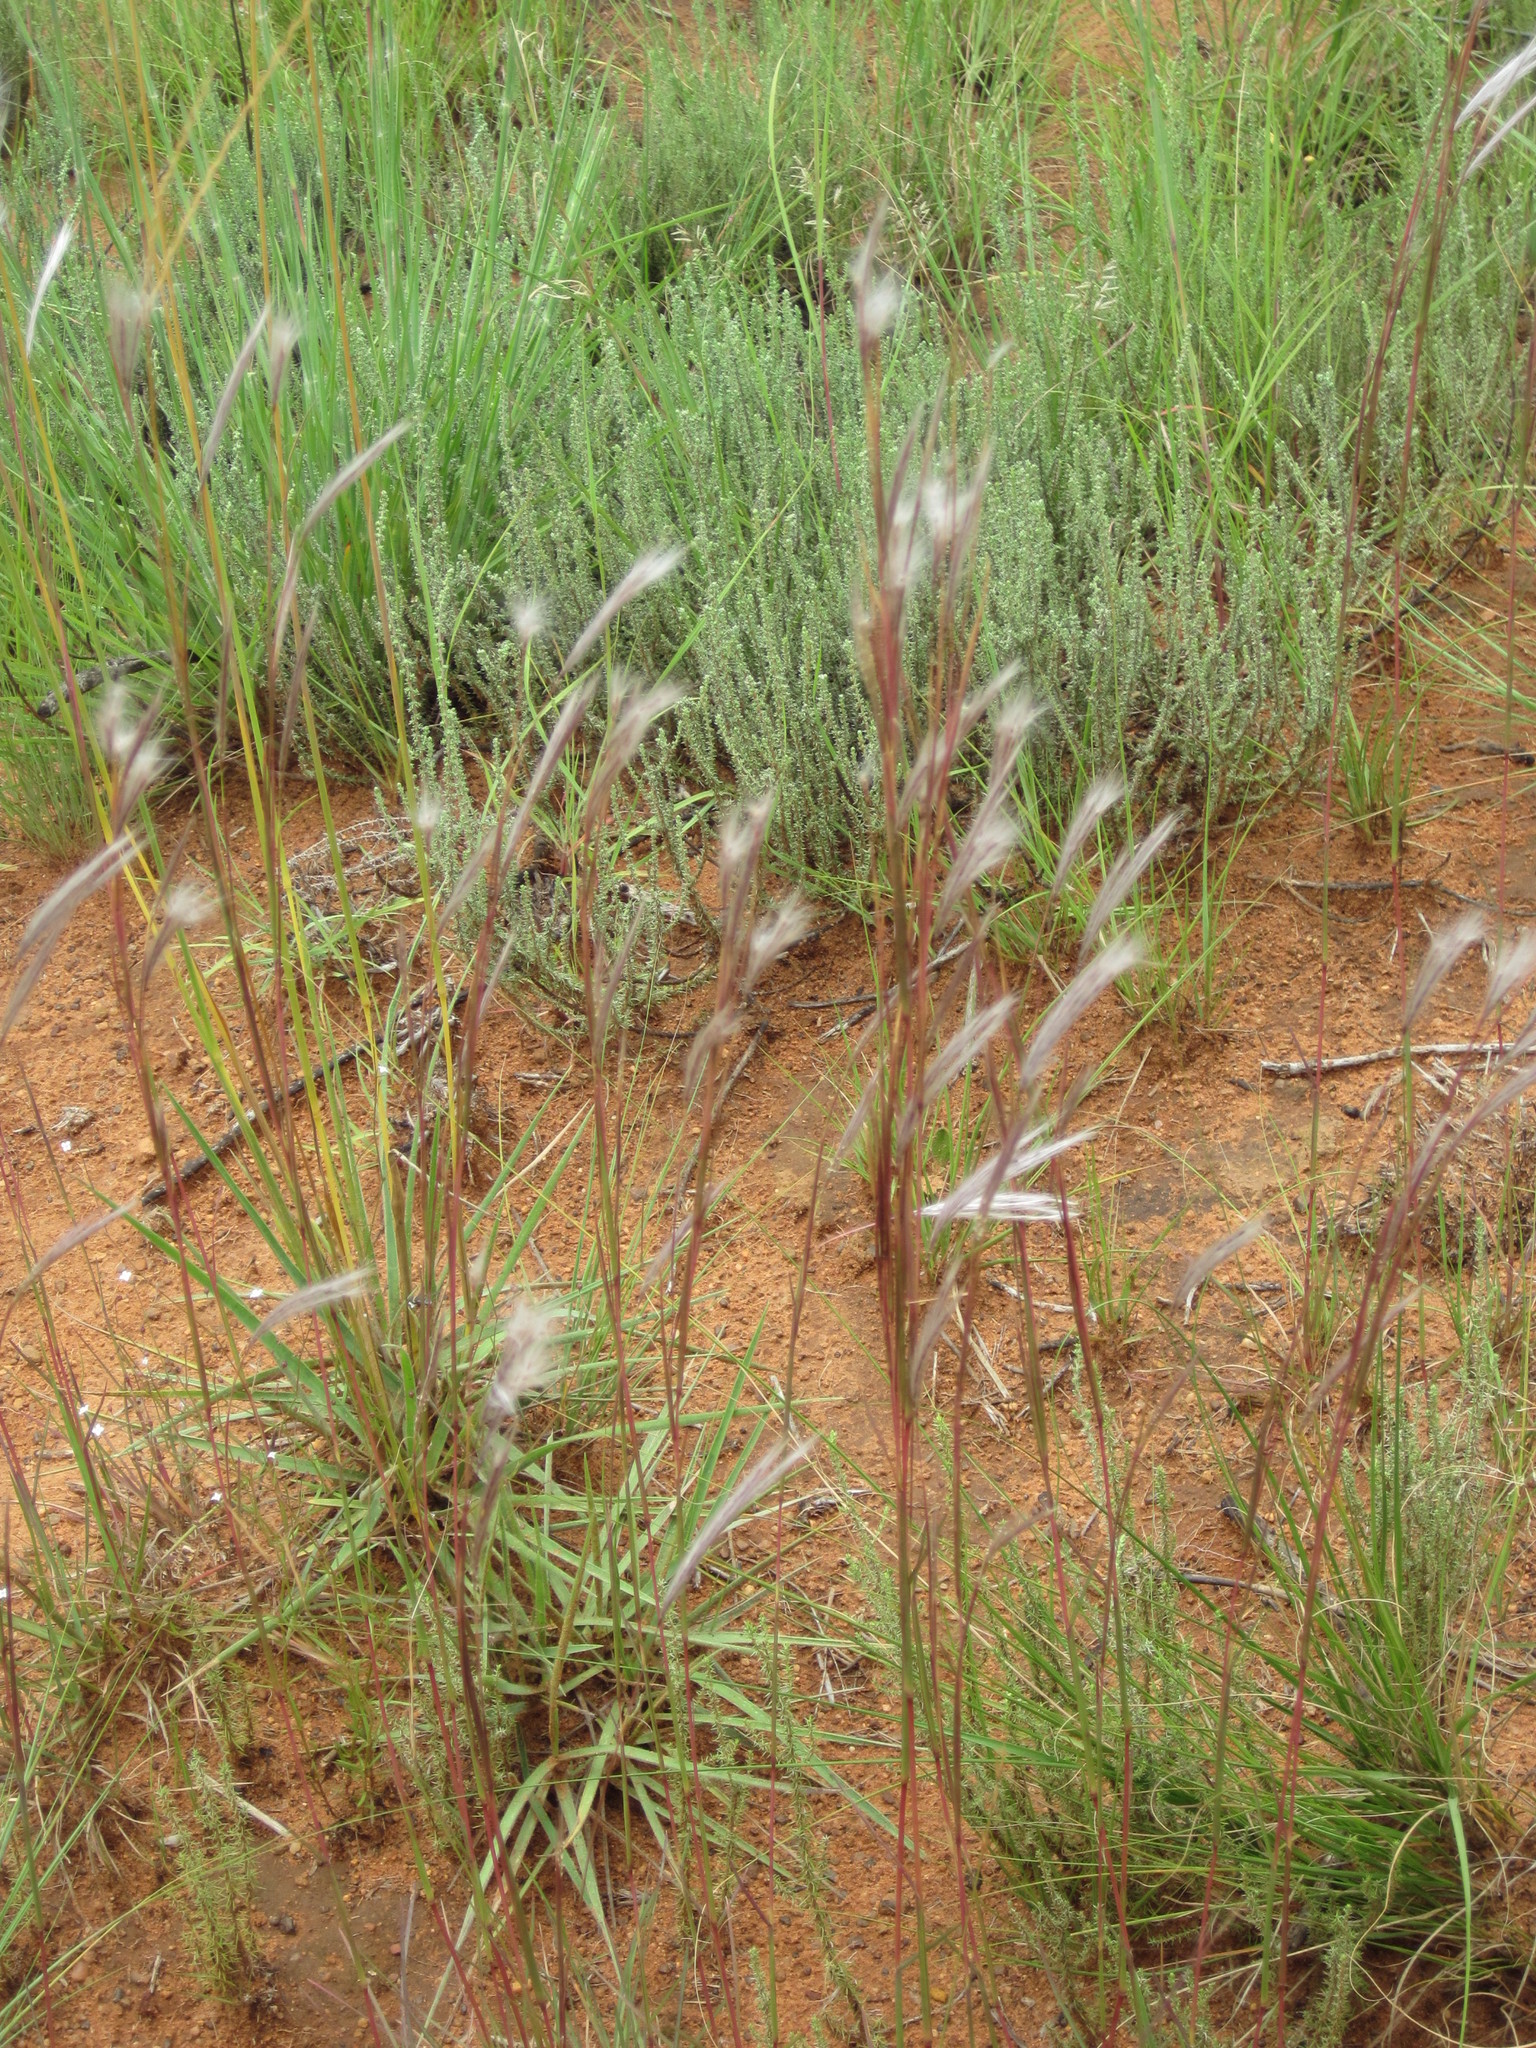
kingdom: Plantae
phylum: Tracheophyta
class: Liliopsida
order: Poales
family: Poaceae
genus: Andropogon
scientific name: Andropogon eucomus
